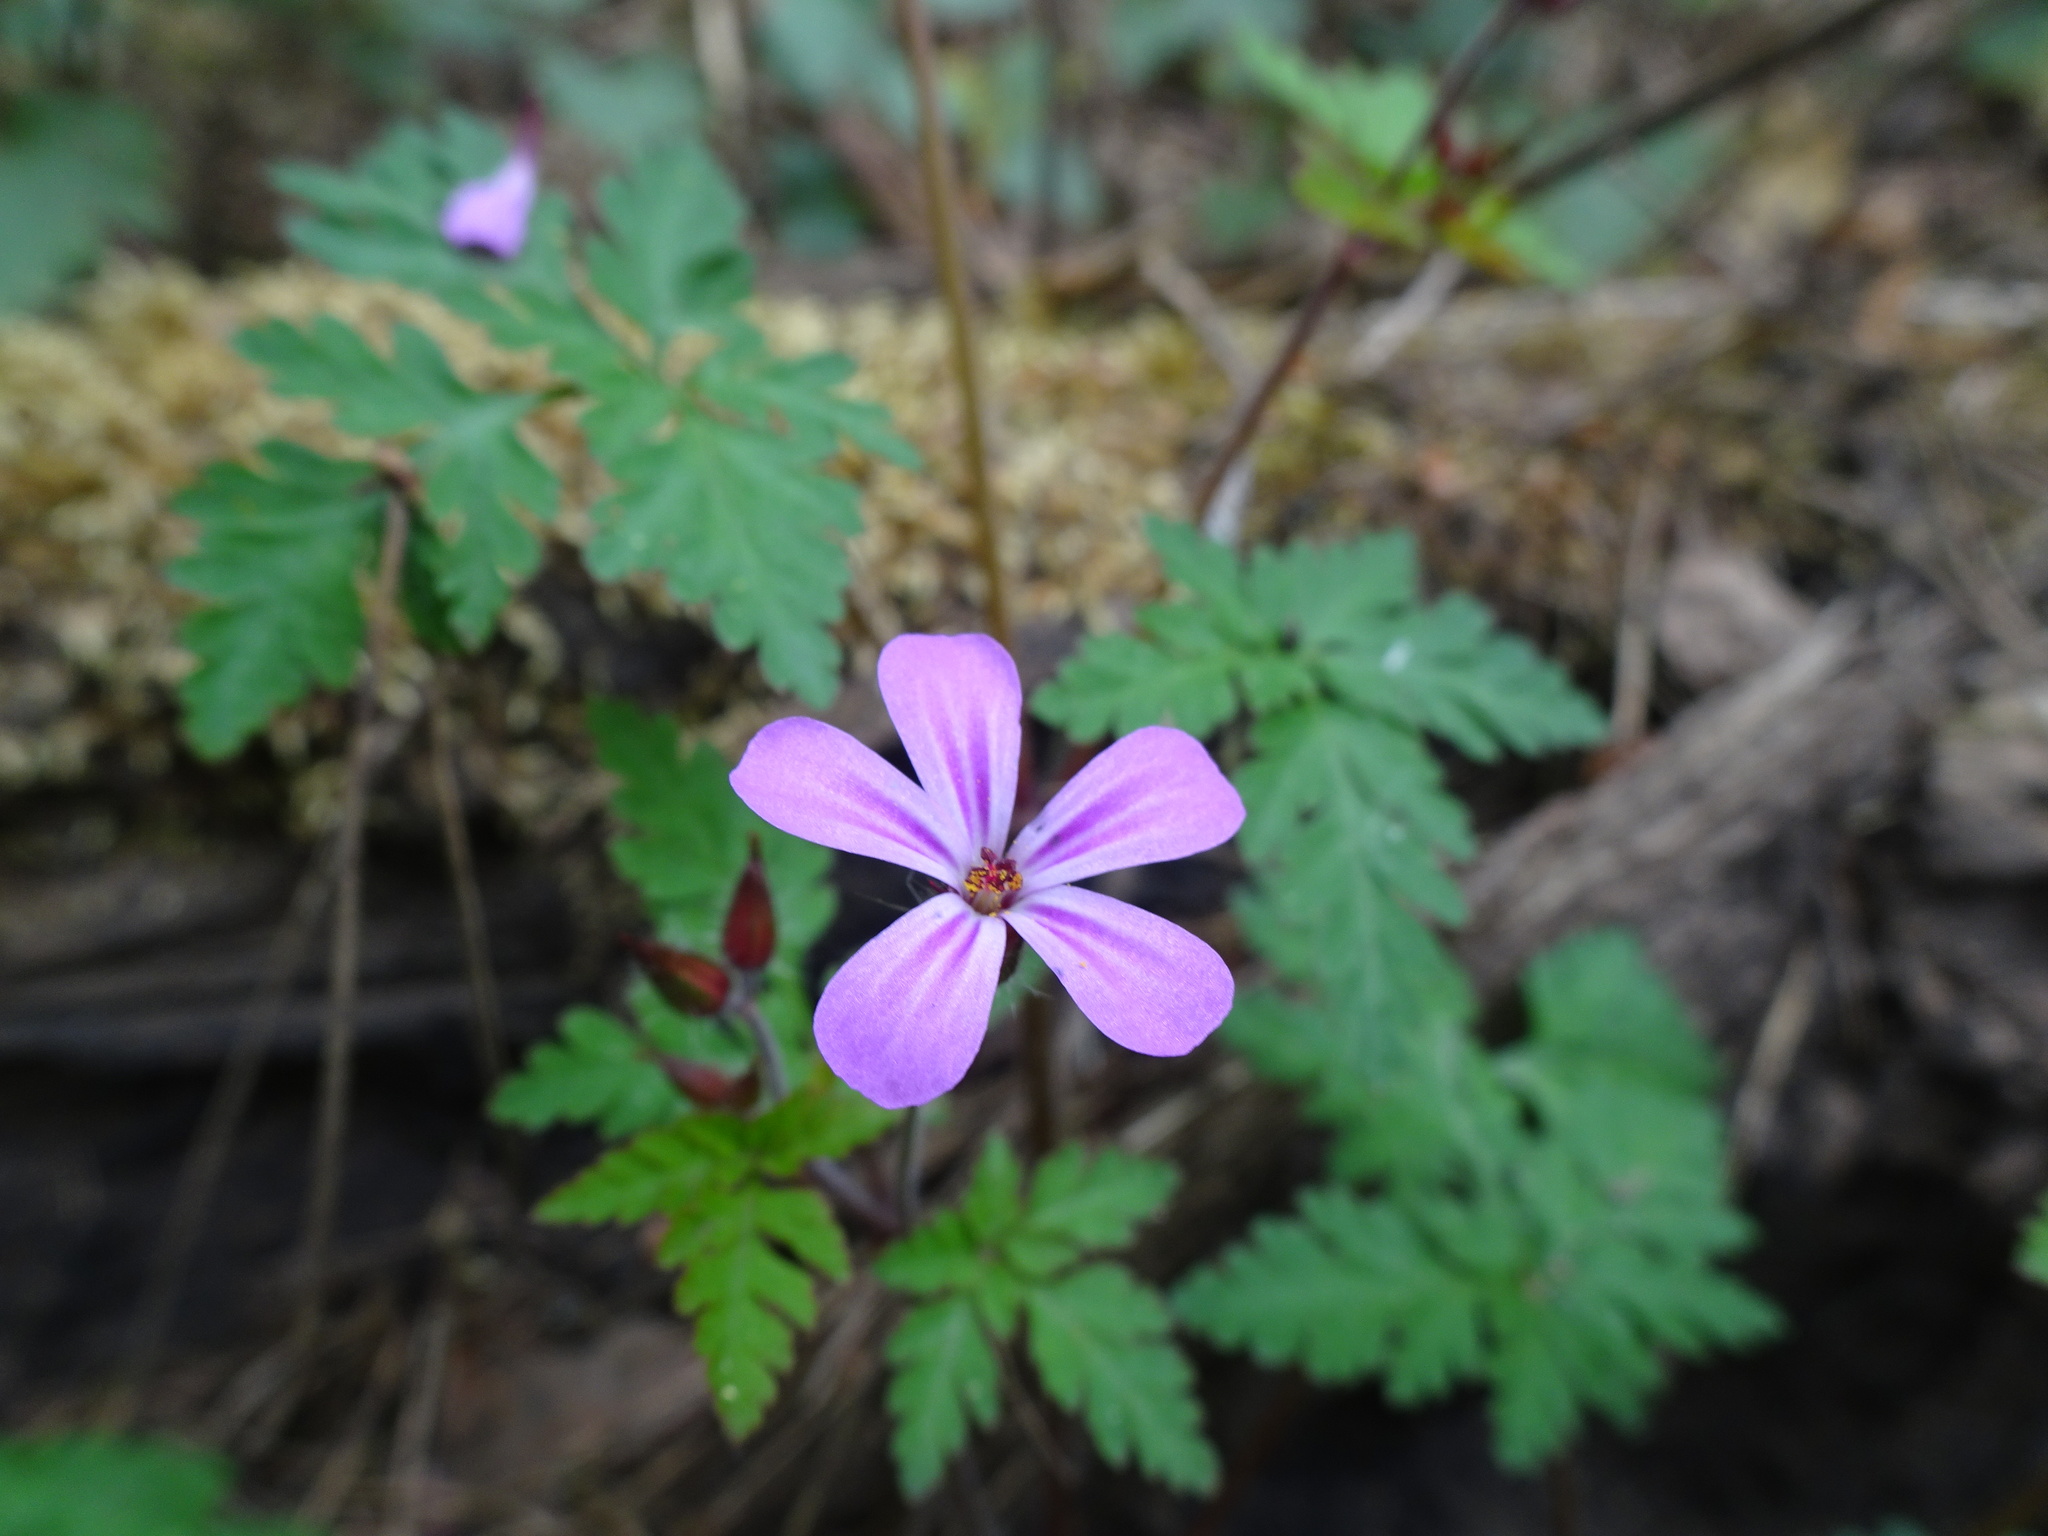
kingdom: Plantae
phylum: Tracheophyta
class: Magnoliopsida
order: Geraniales
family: Geraniaceae
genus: Geranium
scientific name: Geranium robertianum
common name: Herb-robert
